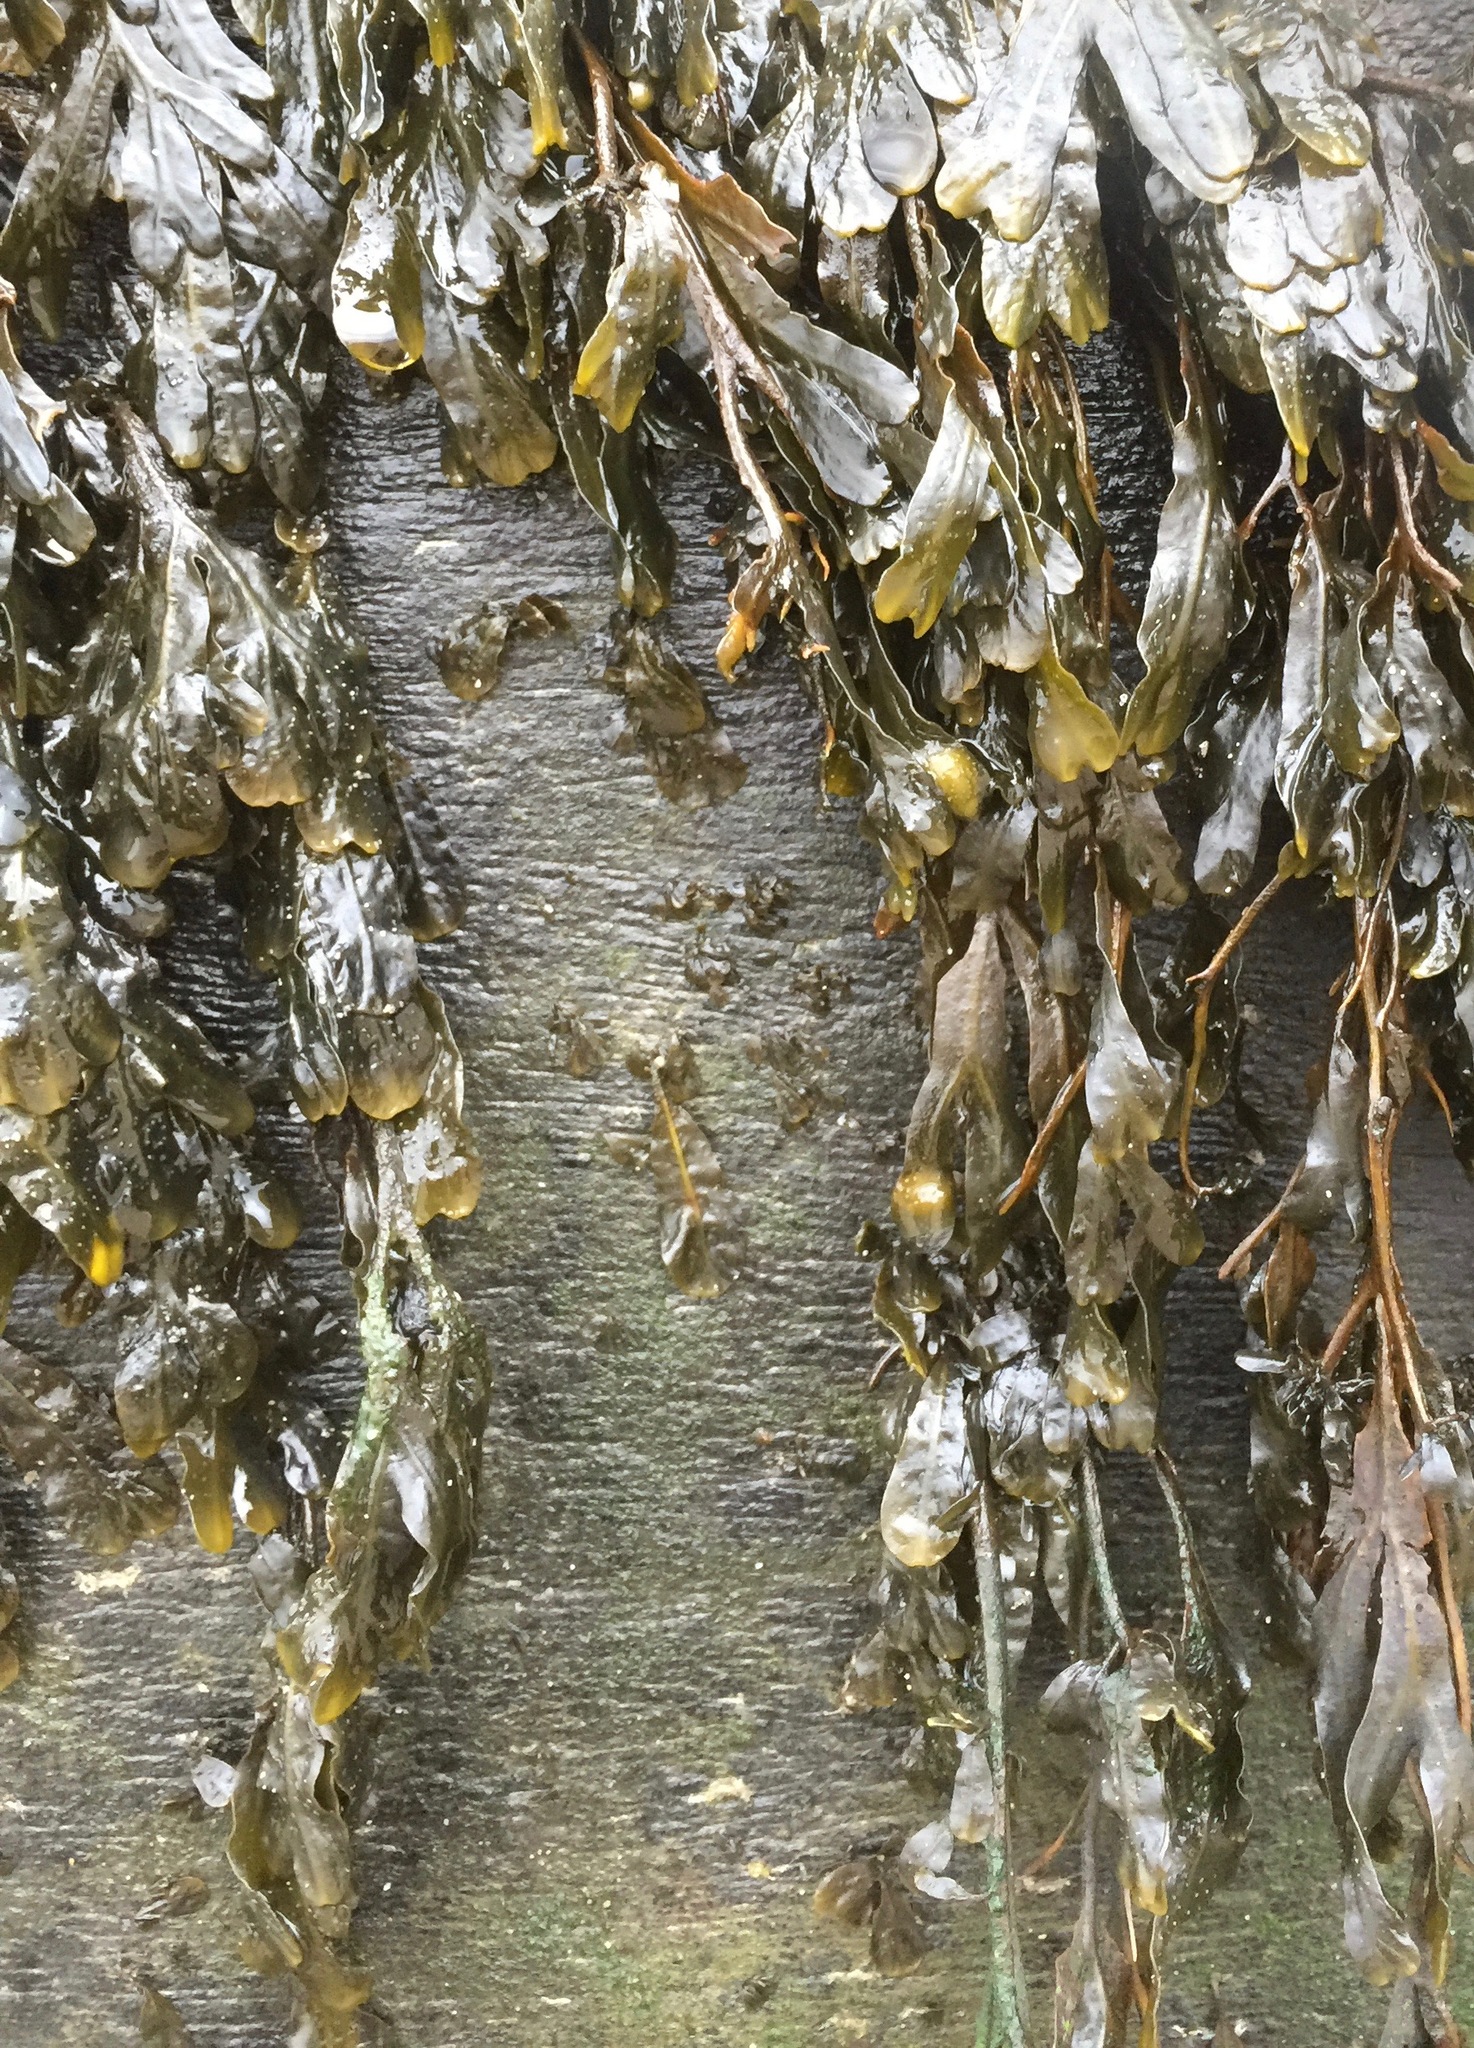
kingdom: Chromista
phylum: Ochrophyta
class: Phaeophyceae
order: Fucales
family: Fucaceae
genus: Fucus
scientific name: Fucus vesiculosus
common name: Bladder wrack
